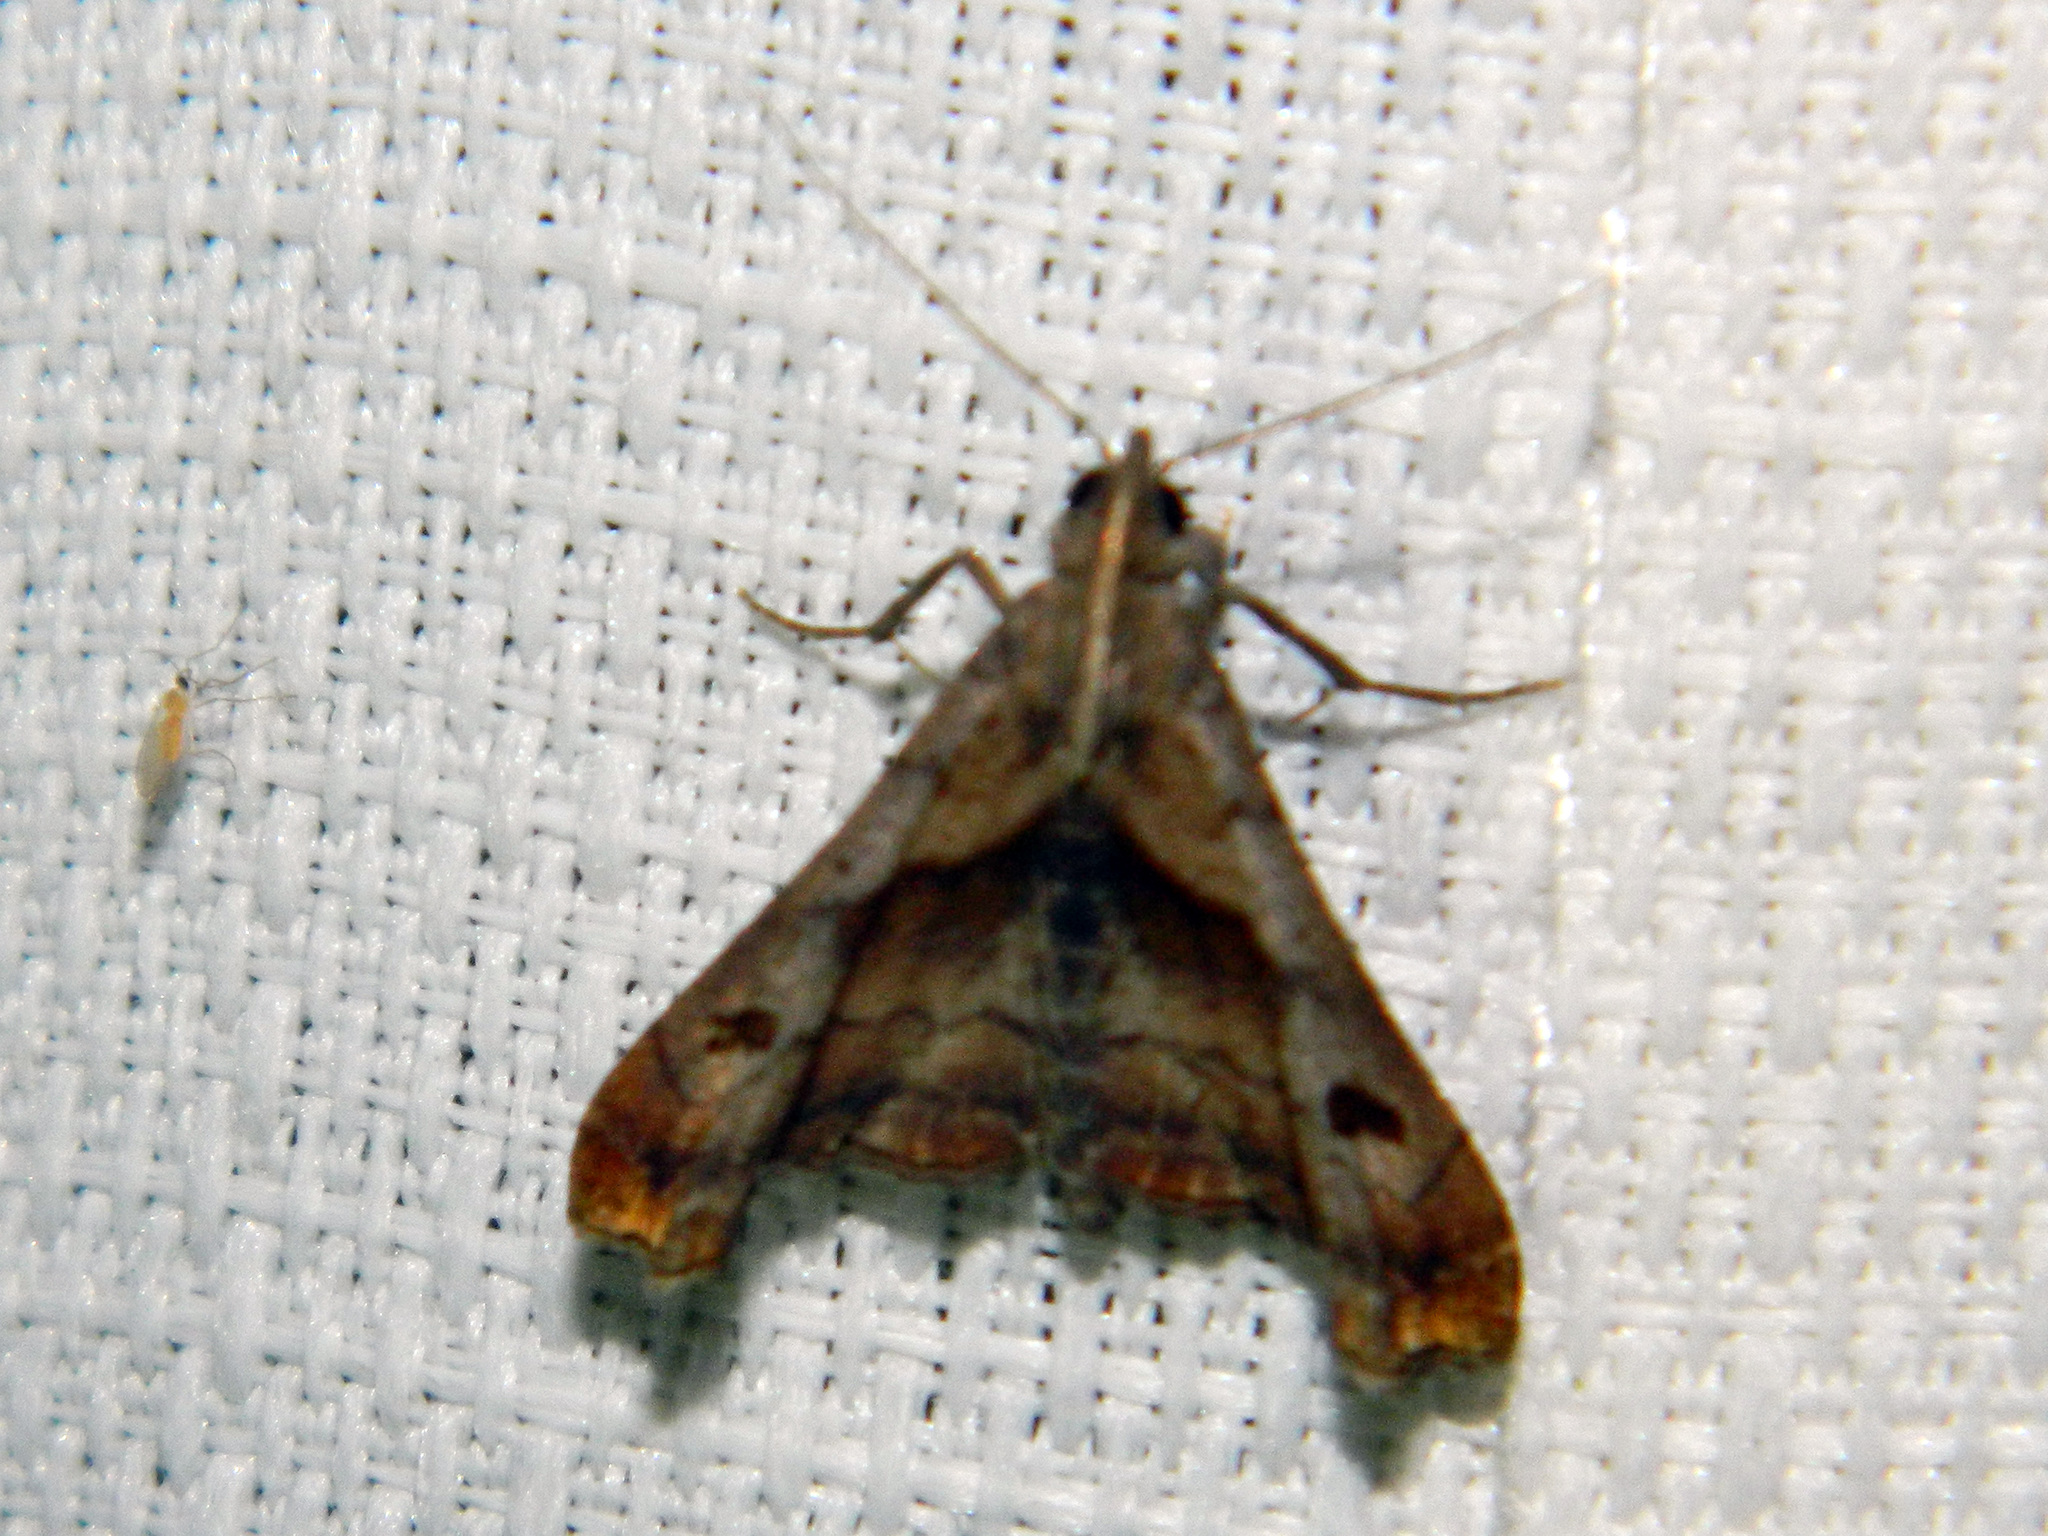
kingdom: Animalia
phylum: Arthropoda
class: Insecta
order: Lepidoptera
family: Erebidae
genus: Palthis
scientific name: Palthis angulalis
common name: Dark-spotted palthis moth
